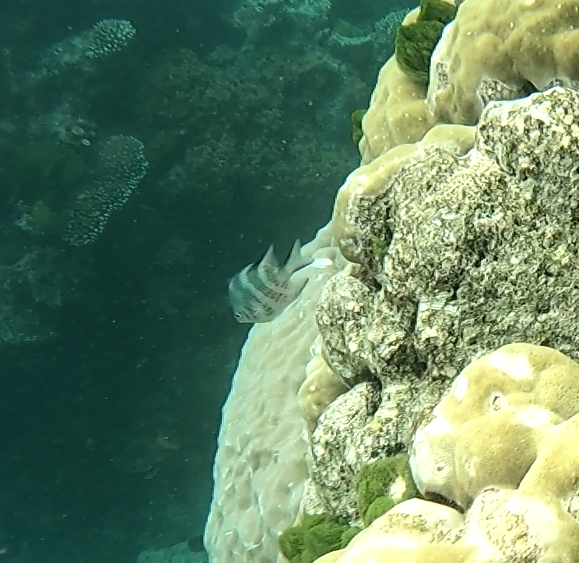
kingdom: Animalia
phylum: Chordata
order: Perciformes
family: Pomacentridae
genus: Amblyglyphidodon
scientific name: Amblyglyphidodon curacao
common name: Staghorn damsel
